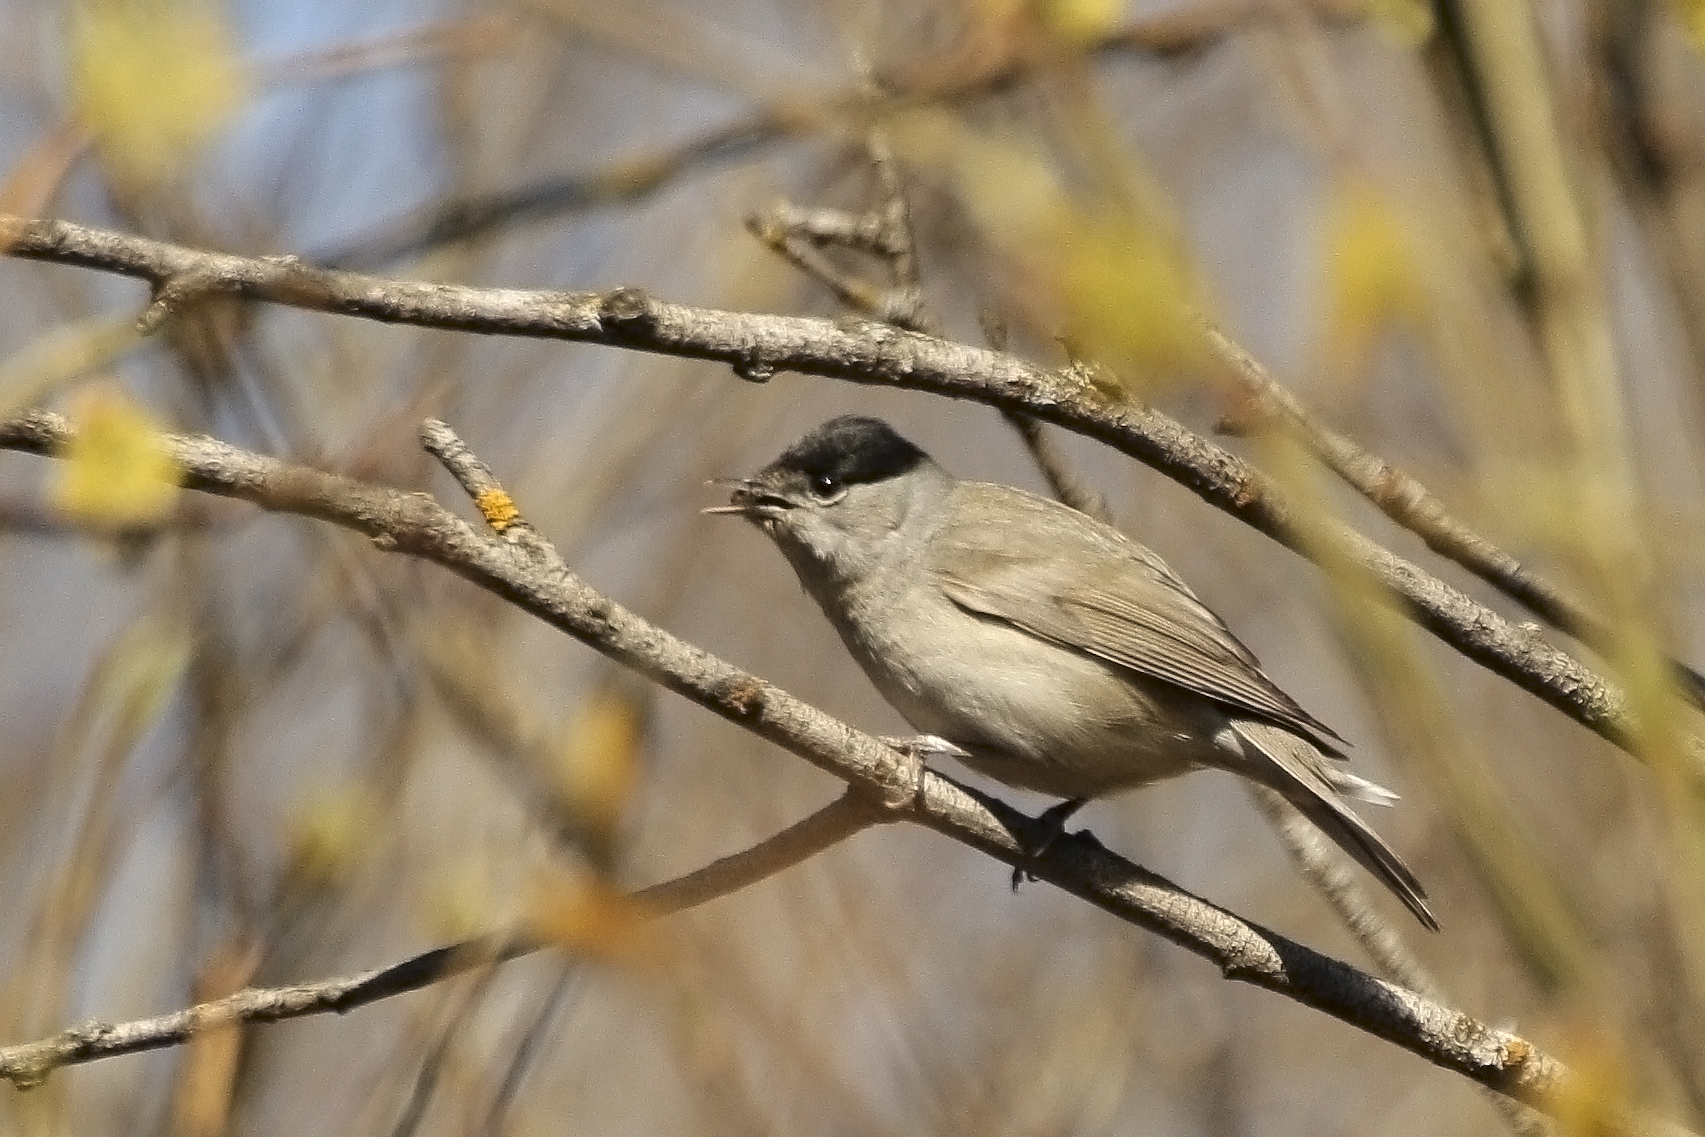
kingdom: Animalia
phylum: Chordata
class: Aves
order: Passeriformes
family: Sylviidae
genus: Sylvia
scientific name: Sylvia atricapilla
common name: Eurasian blackcap
